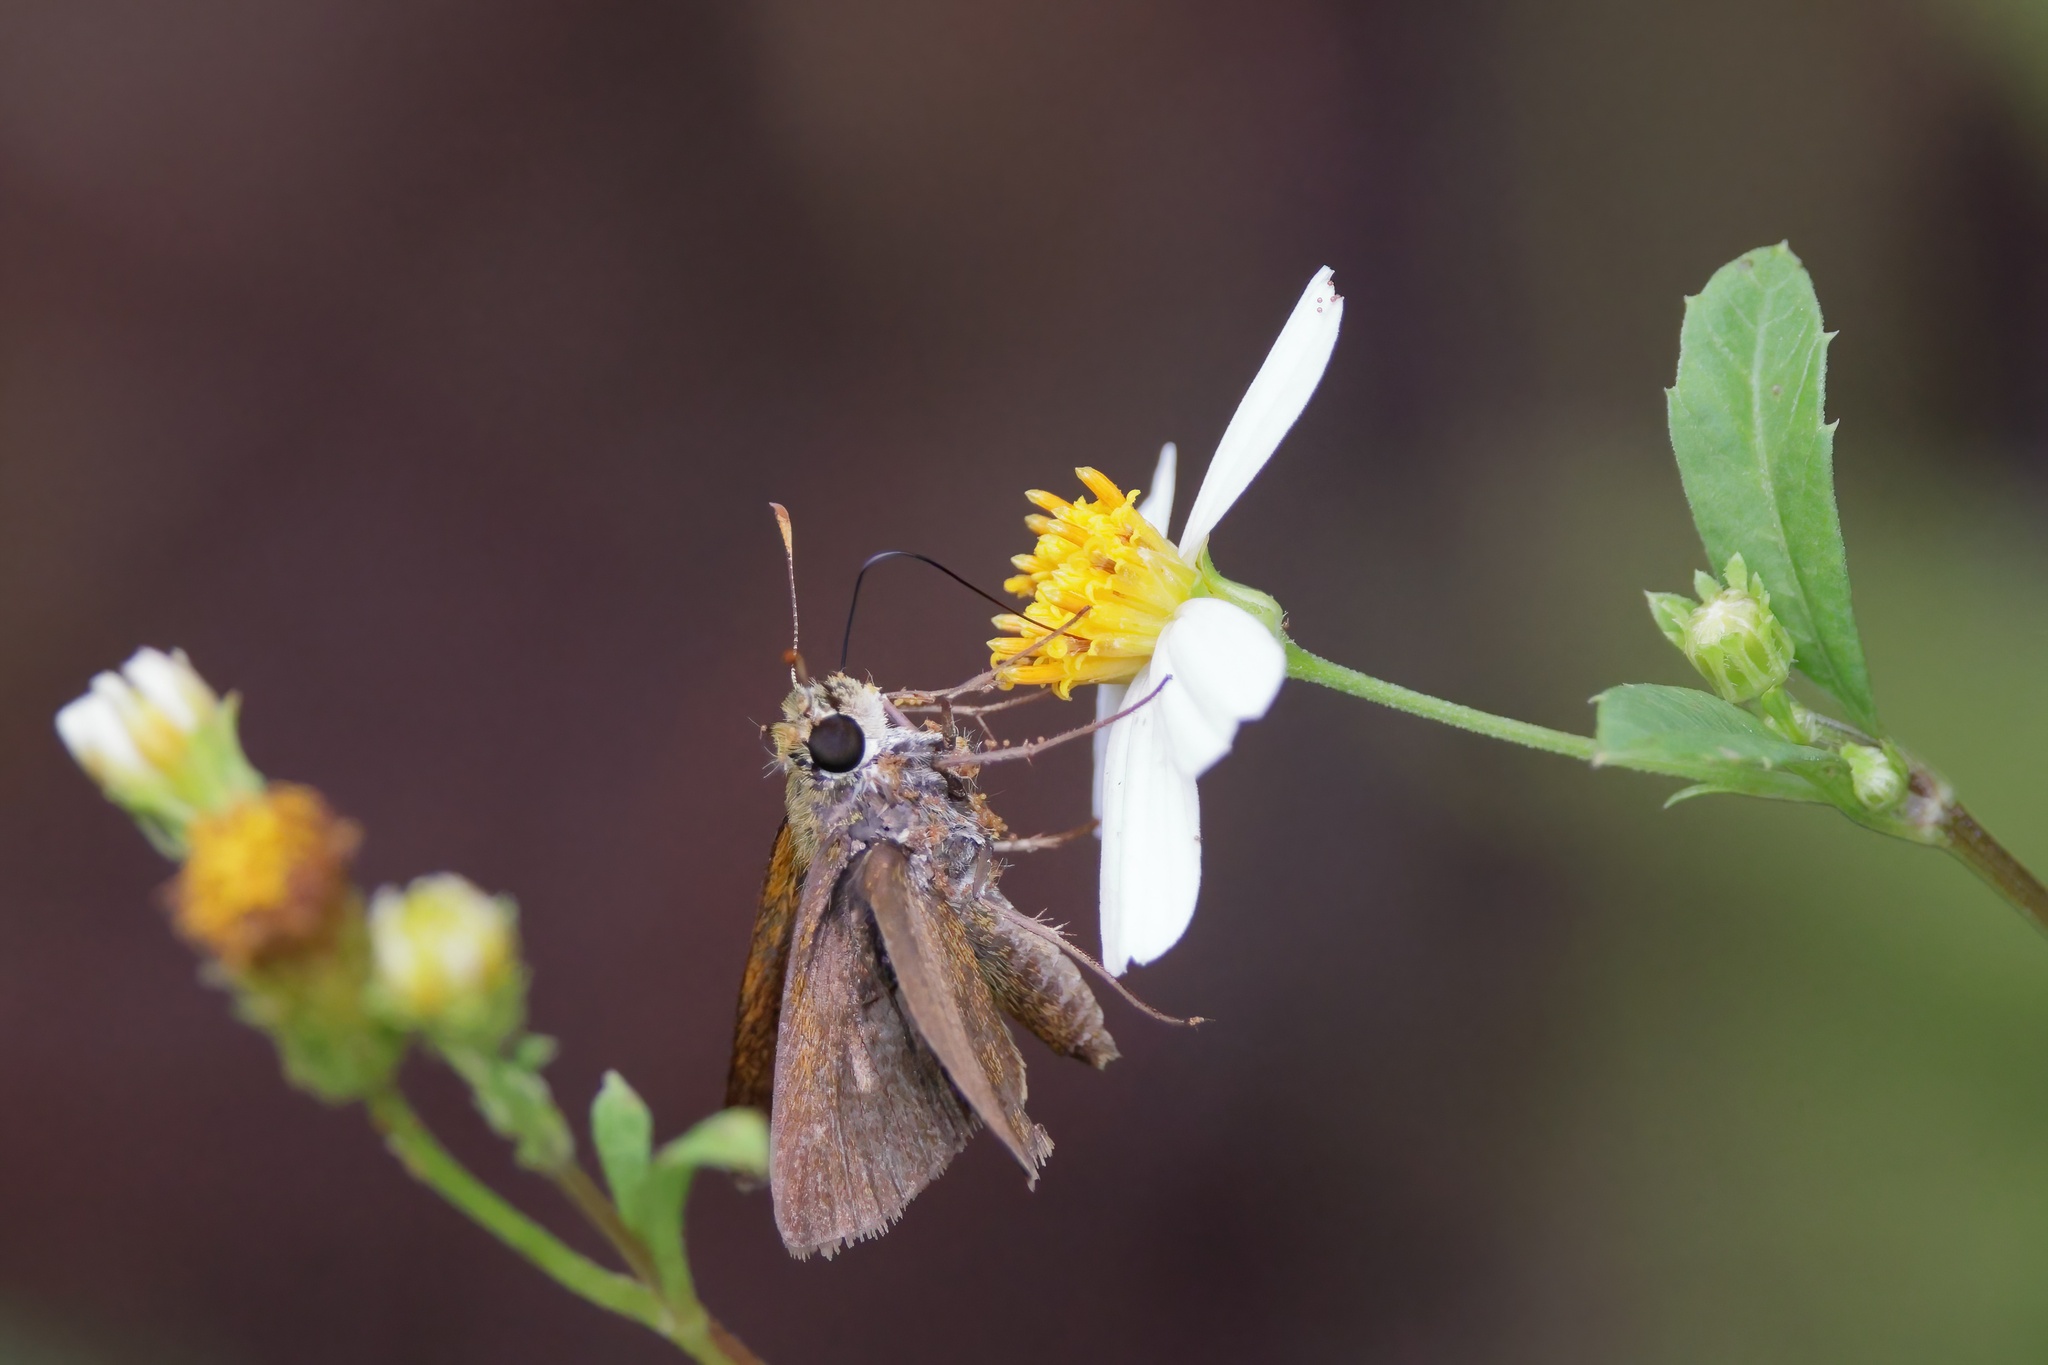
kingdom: Animalia
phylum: Arthropoda
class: Insecta
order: Lepidoptera
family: Hesperiidae
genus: Polites
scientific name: Polites vibex
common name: Whirlabout
